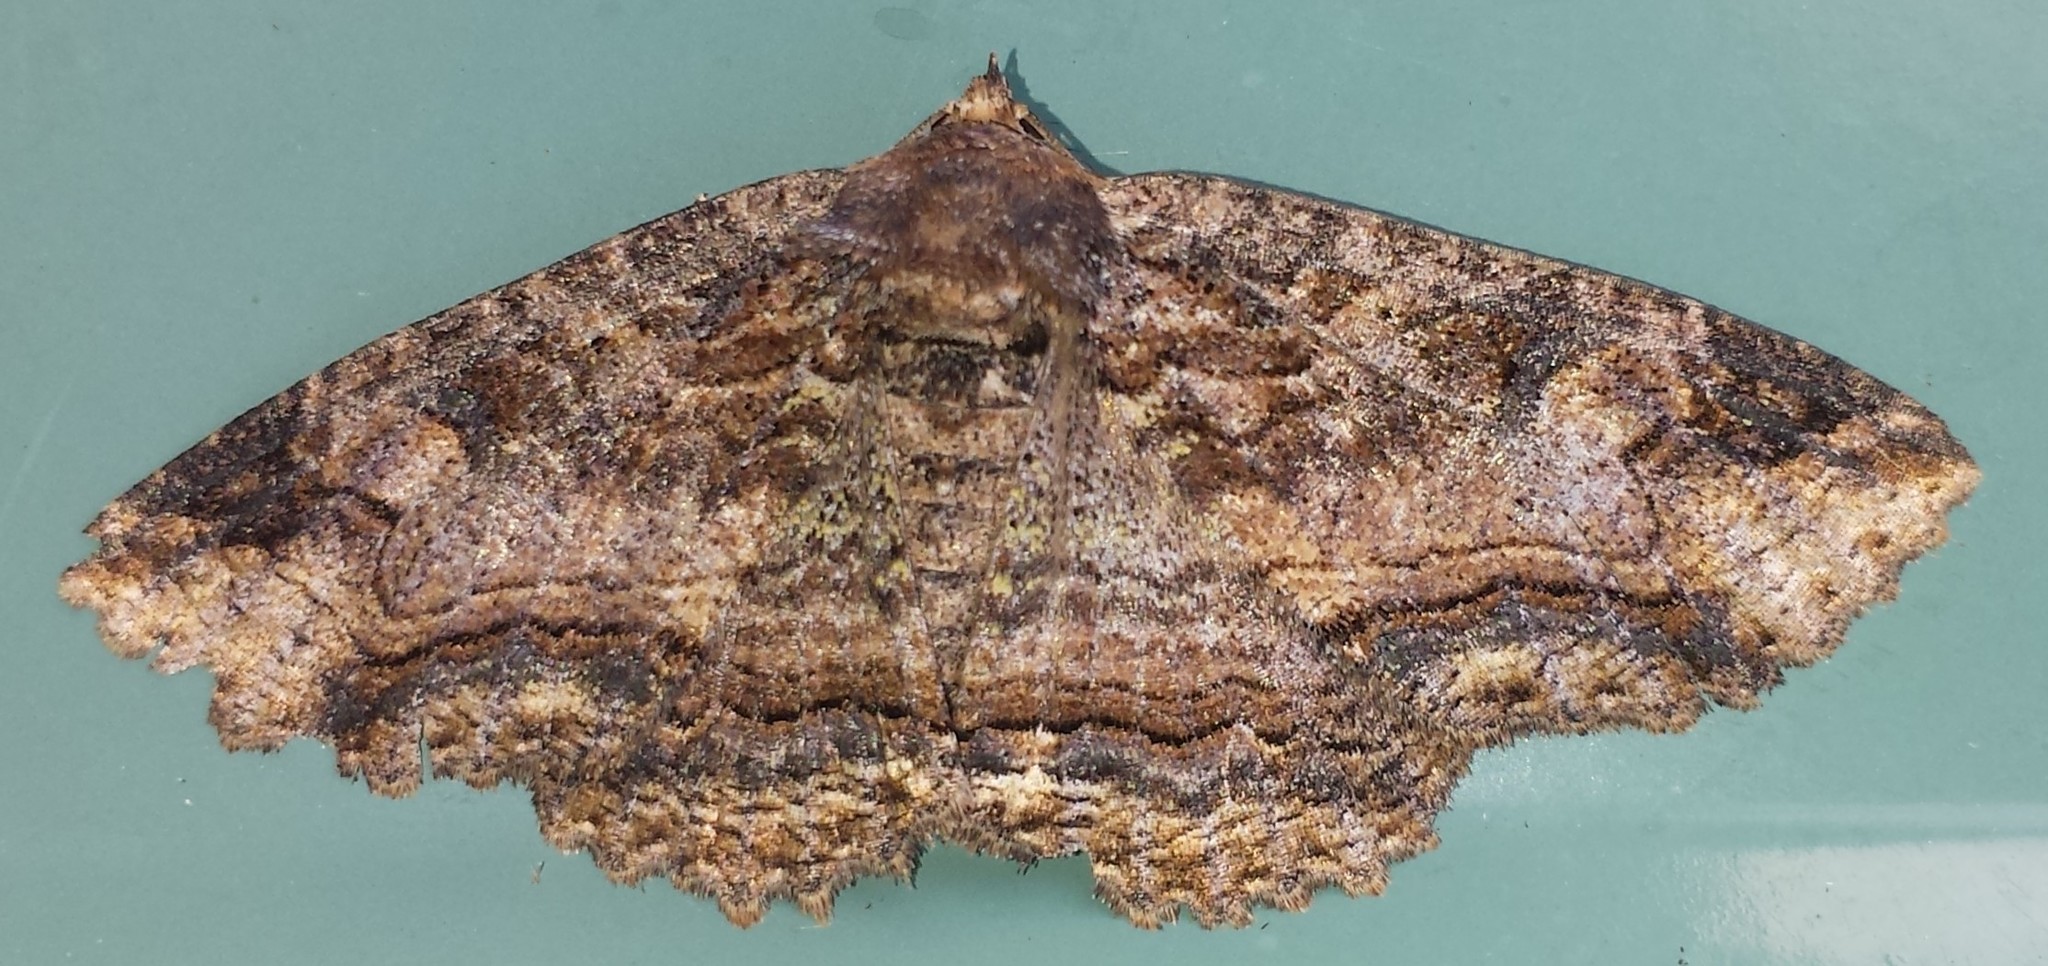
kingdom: Animalia
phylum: Arthropoda
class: Insecta
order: Lepidoptera
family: Erebidae
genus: Zale
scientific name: Zale minerea
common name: Colorful zale moth
